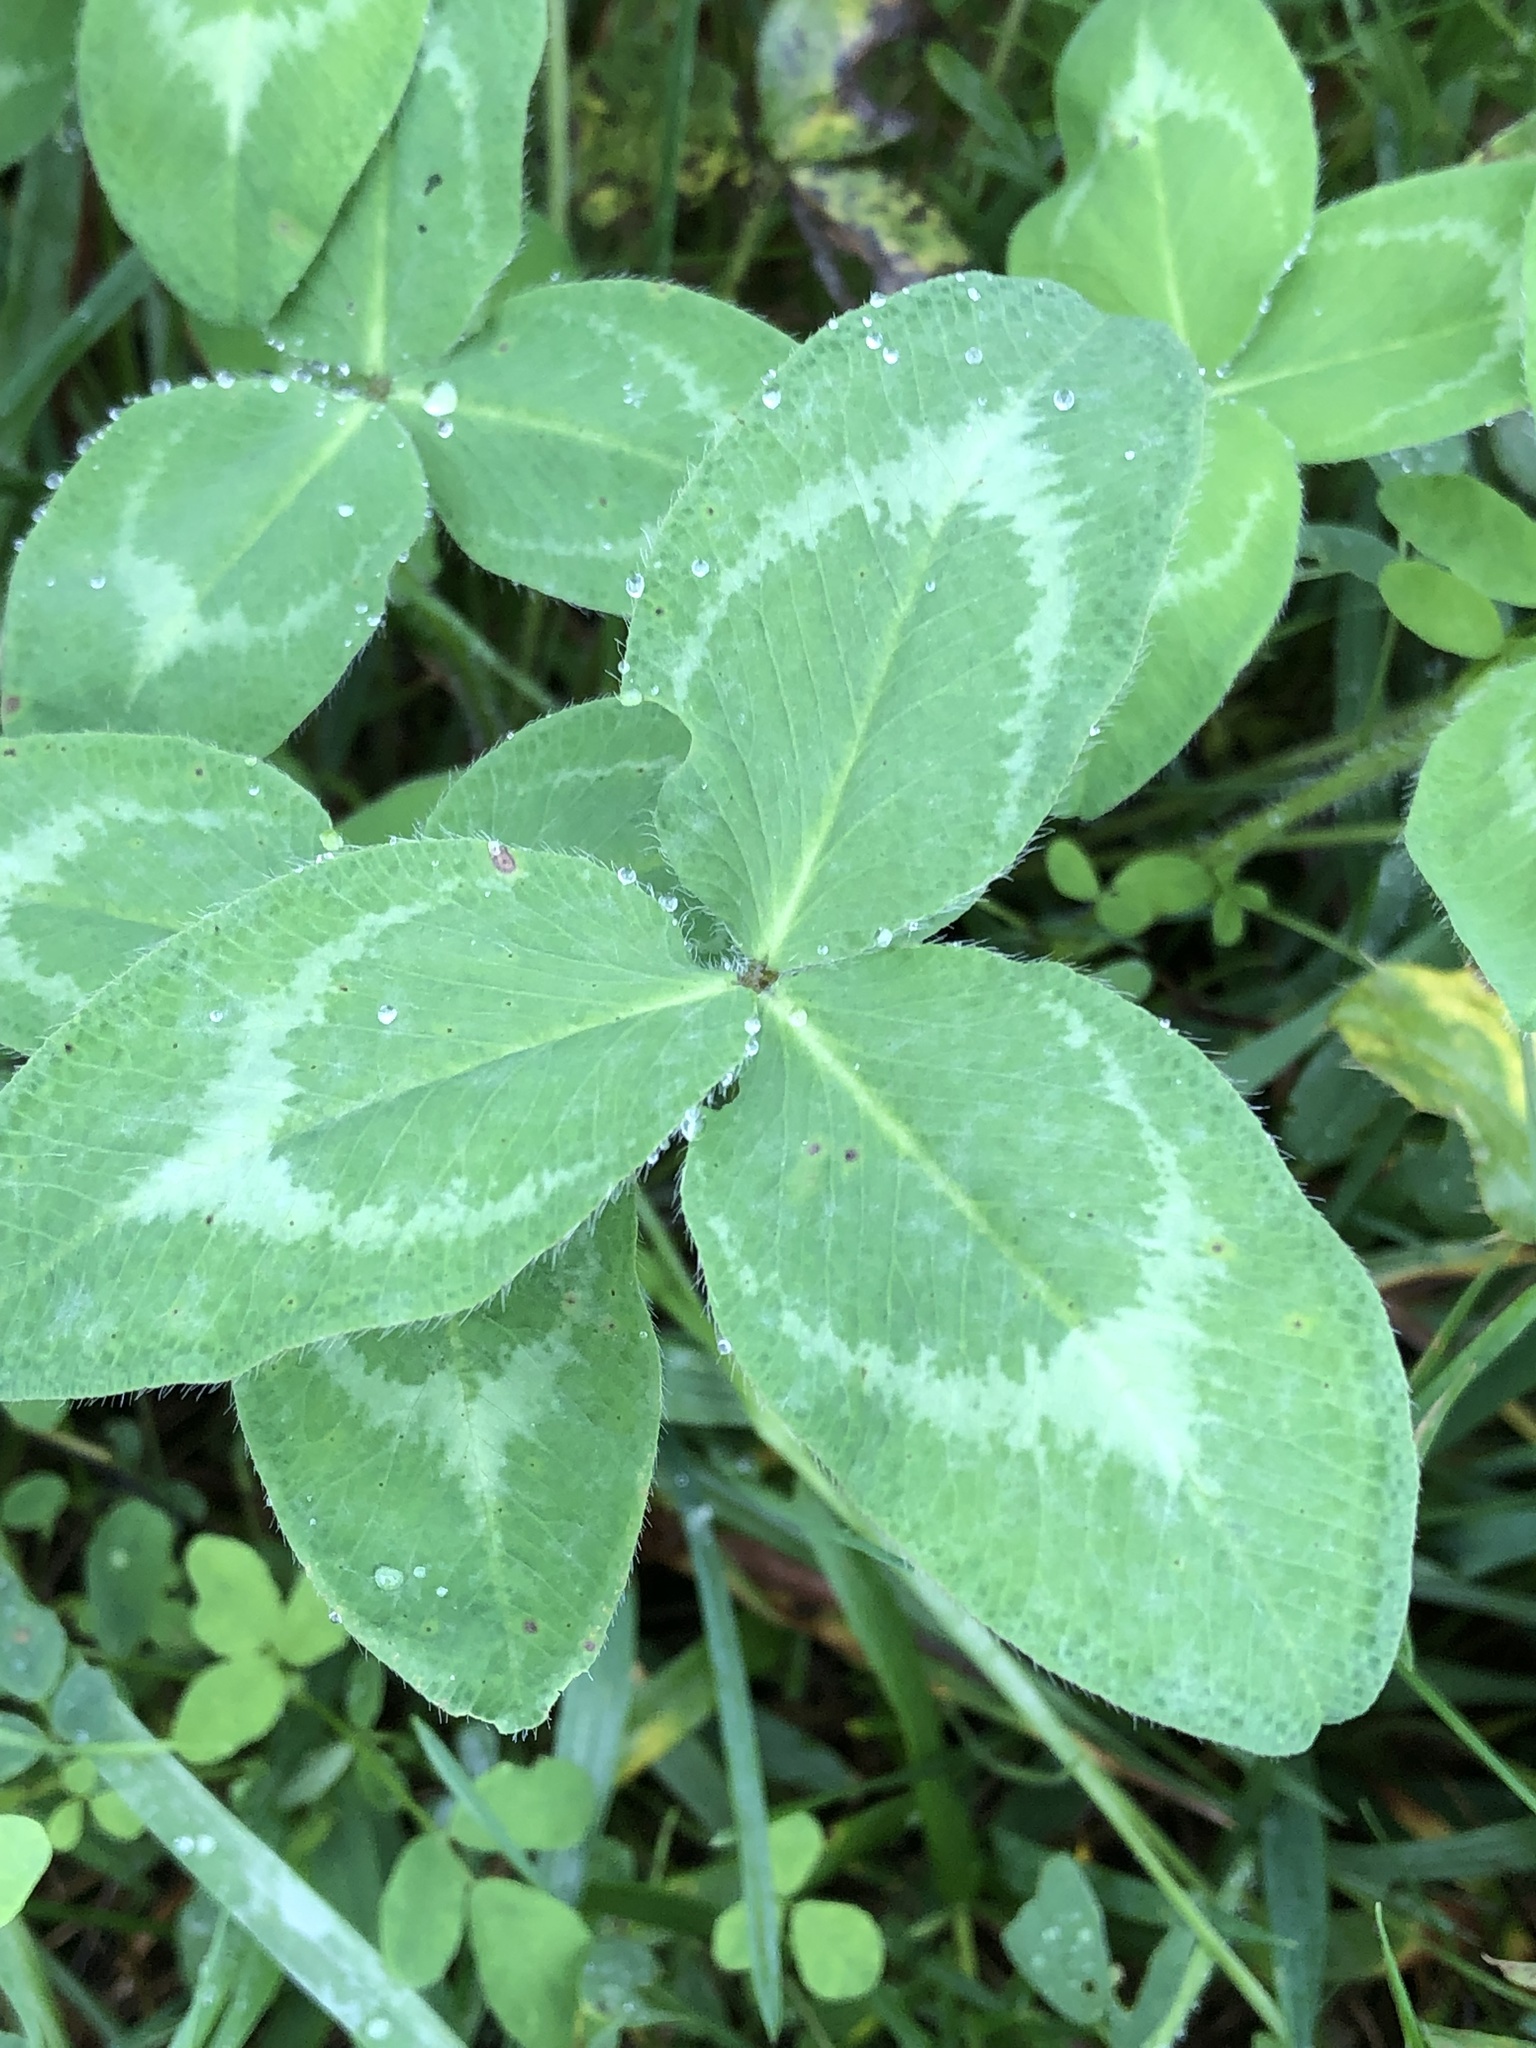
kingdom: Plantae
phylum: Tracheophyta
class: Magnoliopsida
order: Fabales
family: Fabaceae
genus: Trifolium
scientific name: Trifolium pratense
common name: Red clover
